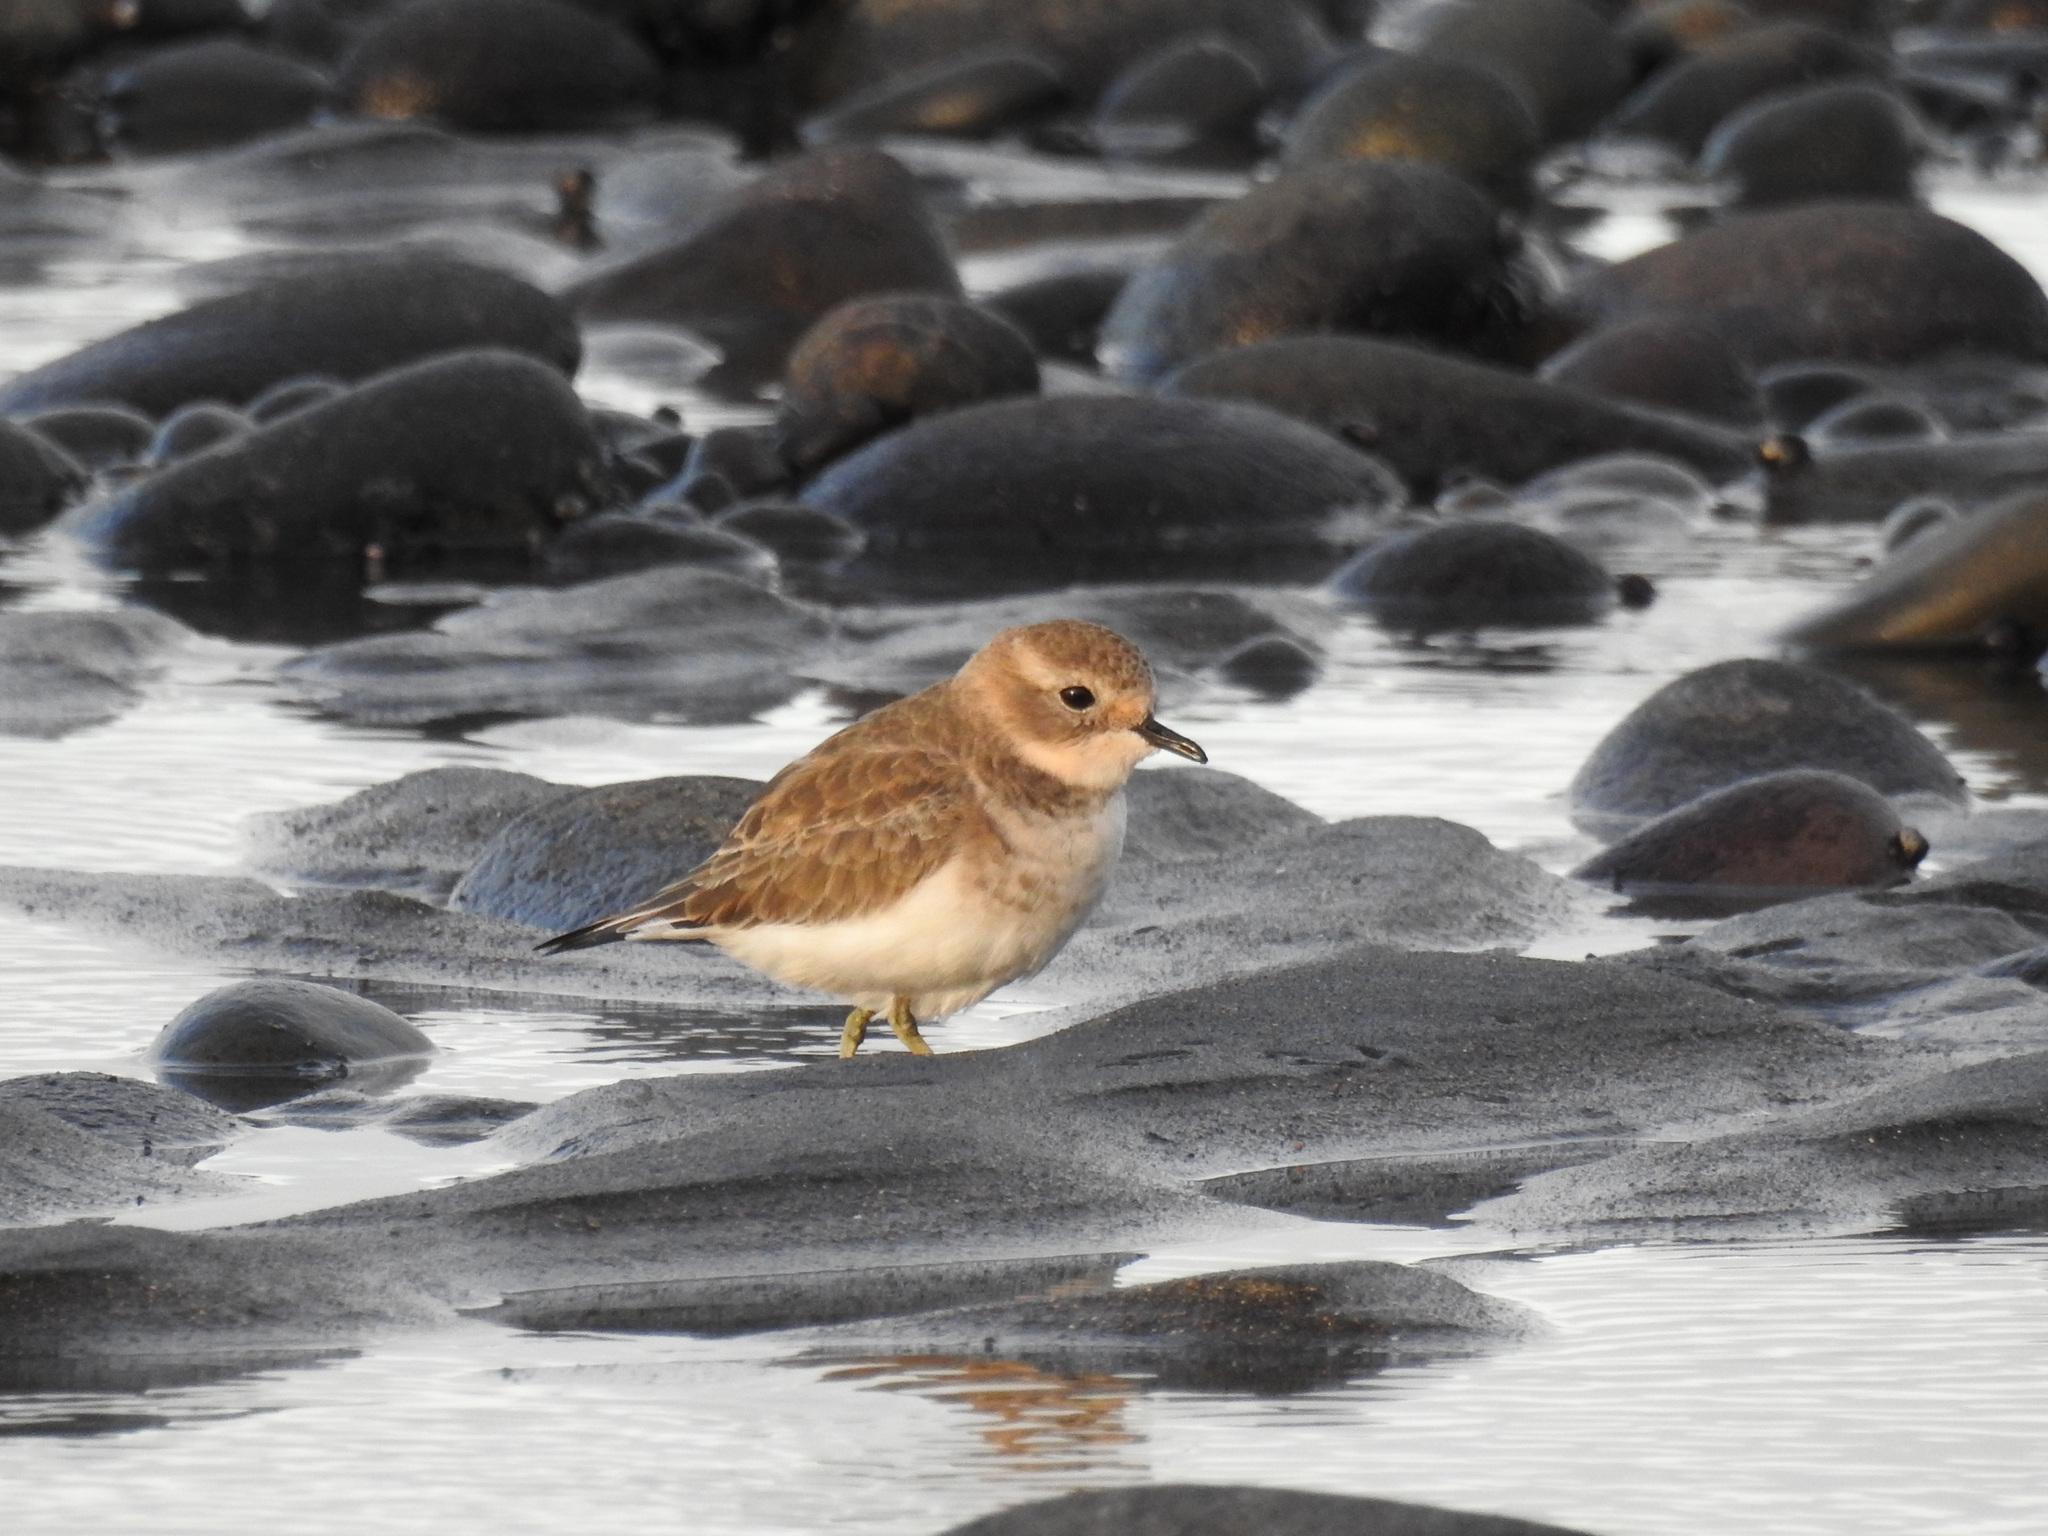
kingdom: Animalia
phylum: Chordata
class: Aves
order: Charadriiformes
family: Charadriidae
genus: Anarhynchus
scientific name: Anarhynchus
